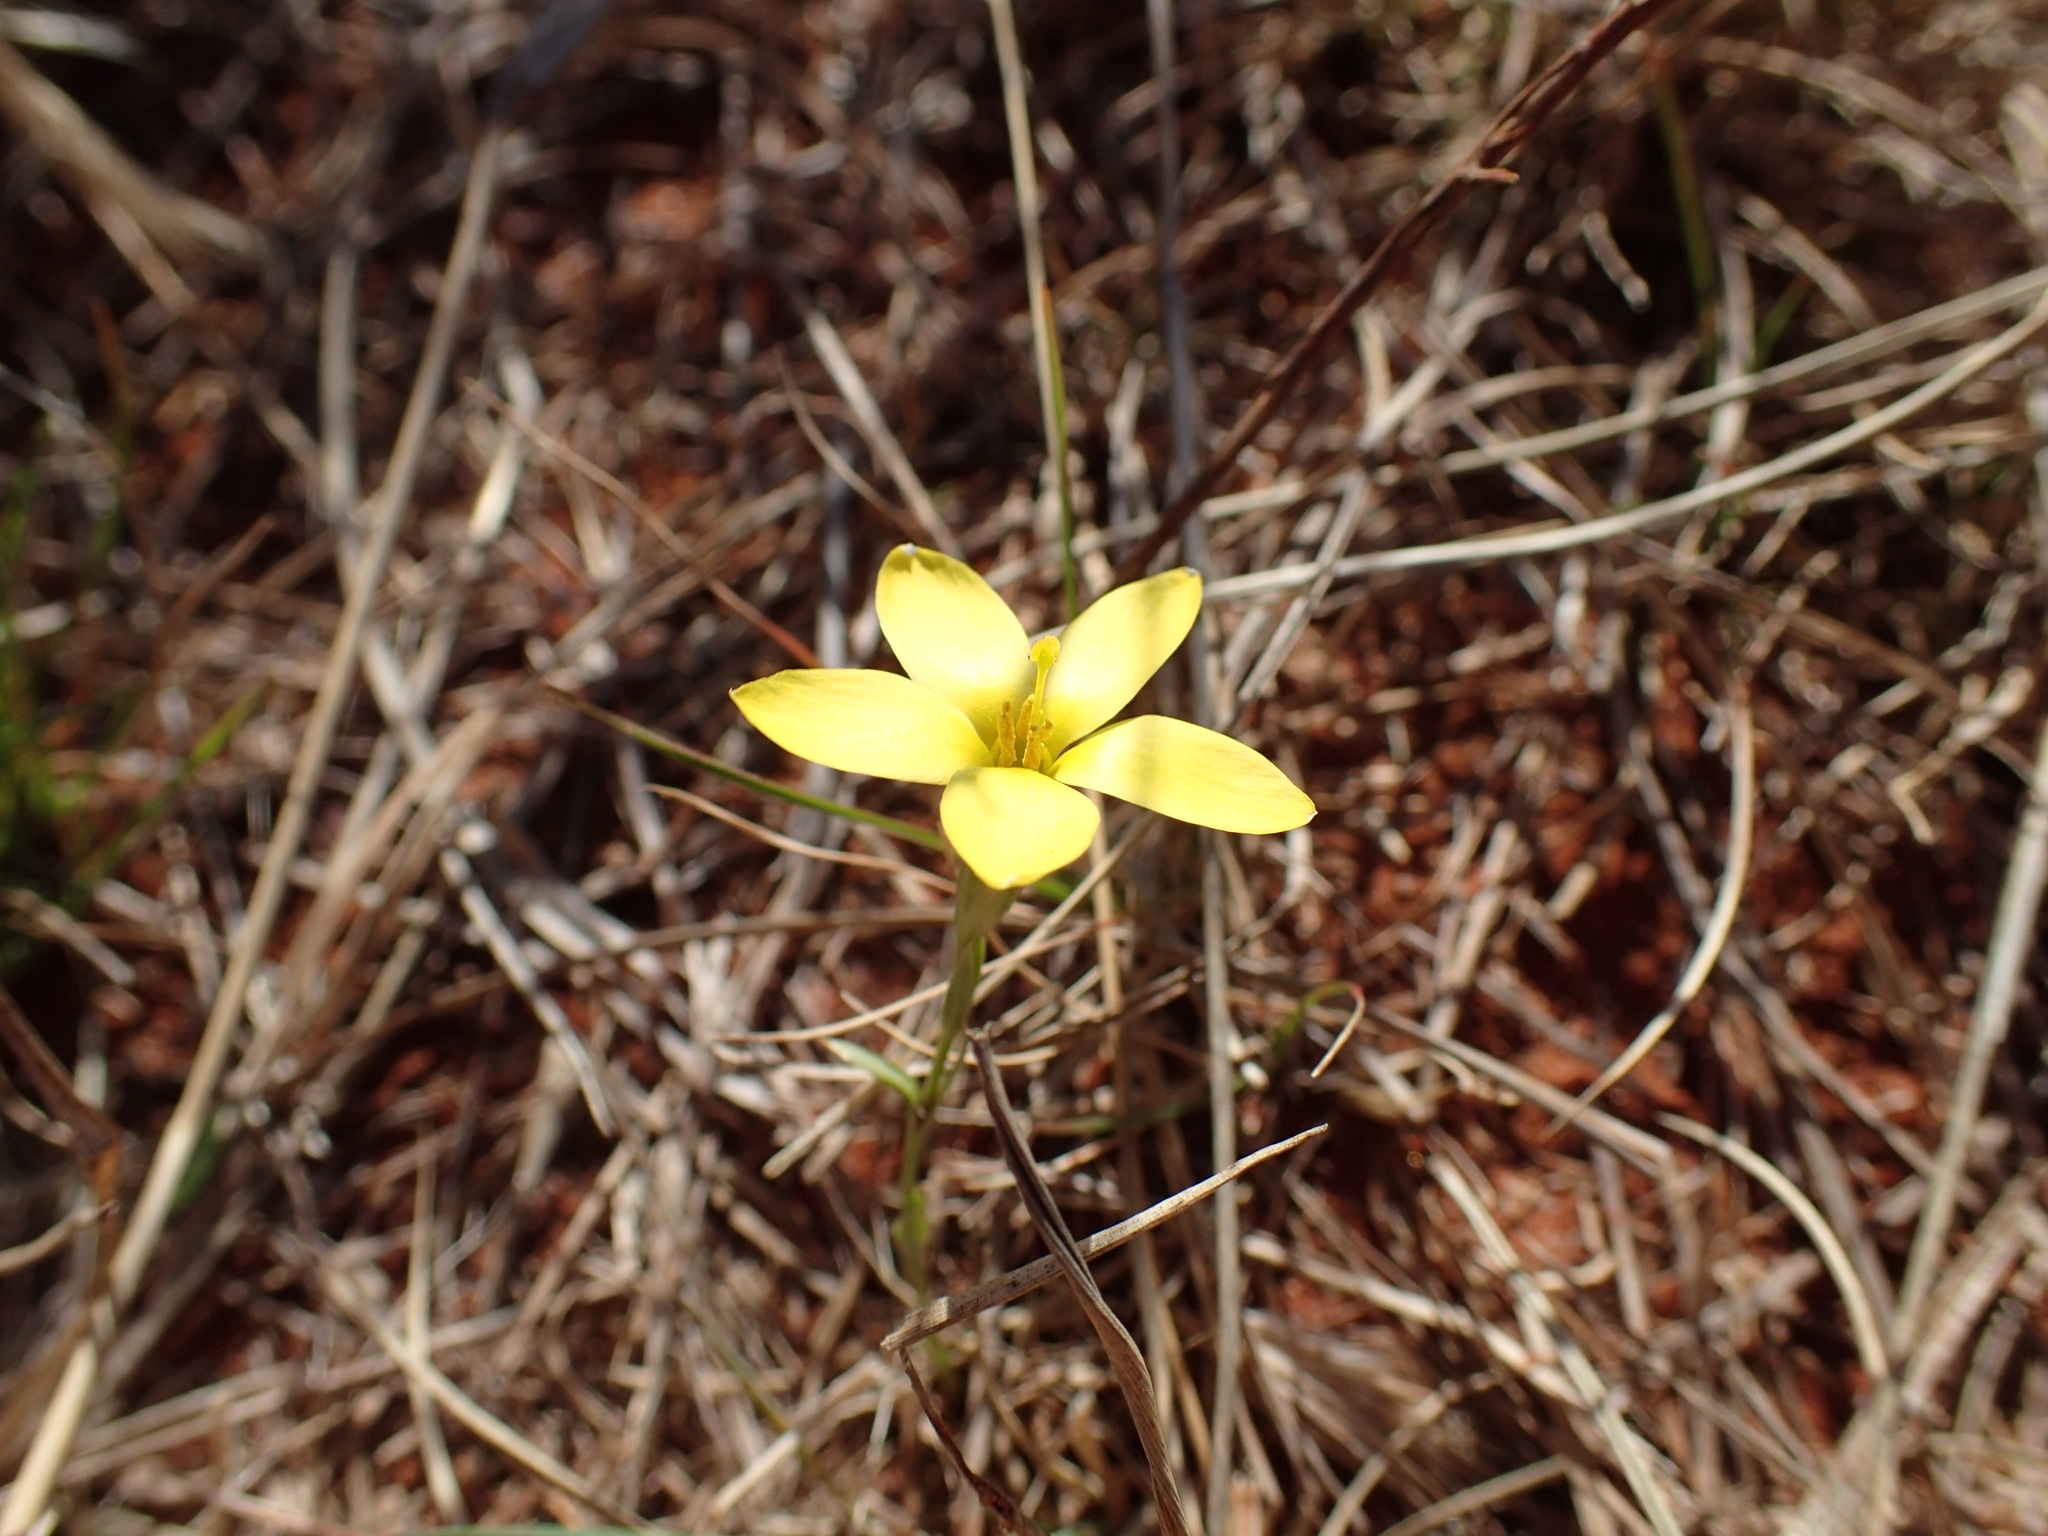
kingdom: Plantae
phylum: Tracheophyta
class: Magnoliopsida
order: Gentianales
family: Gentianaceae
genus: Sebaea
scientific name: Sebaea exigua
